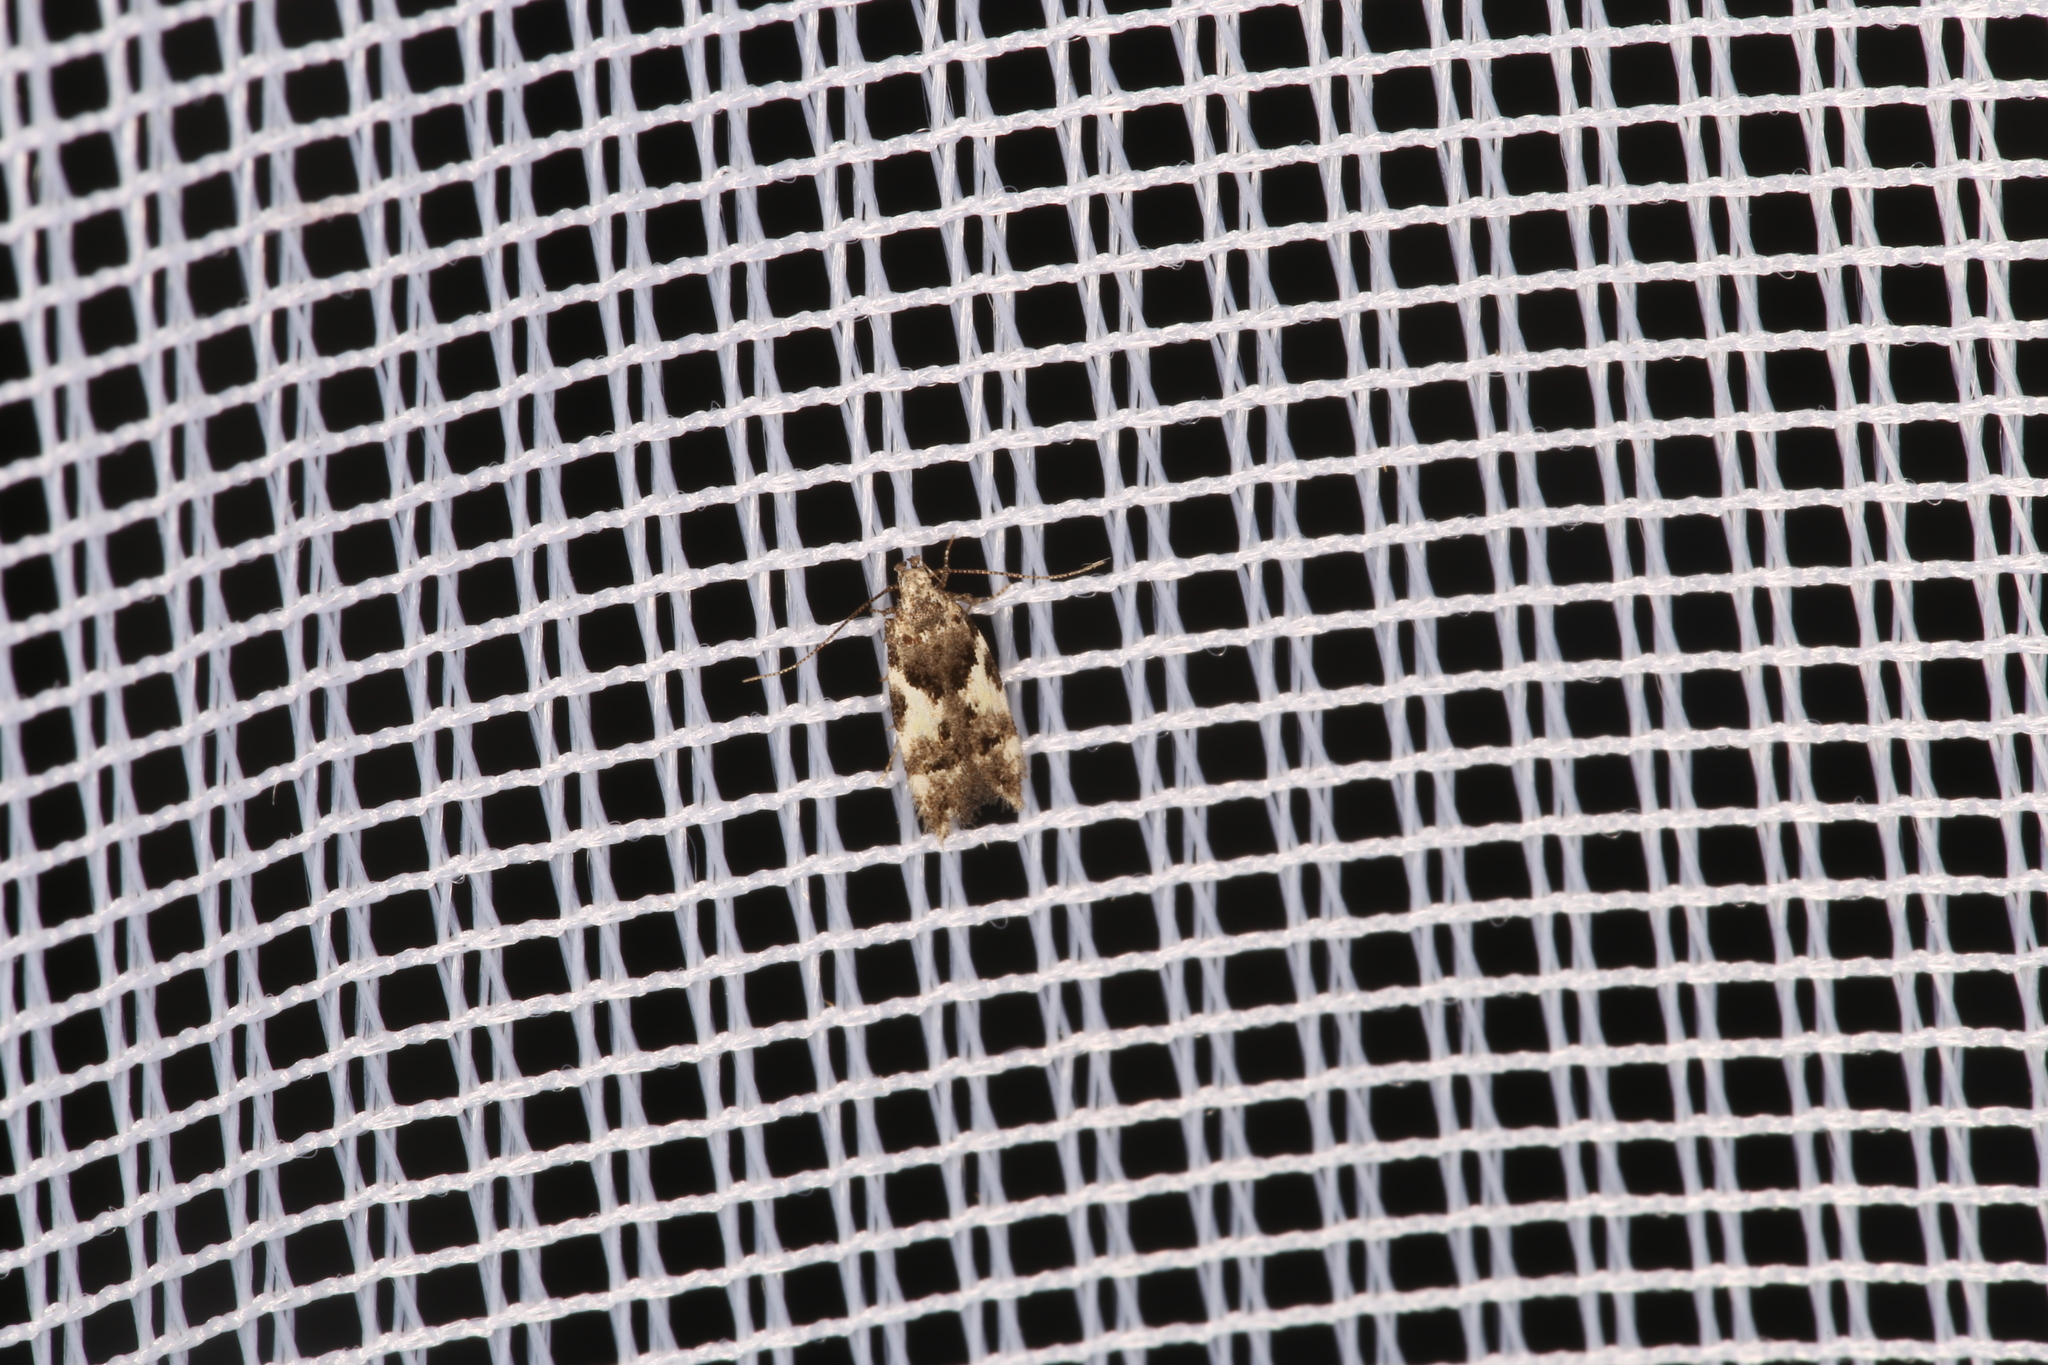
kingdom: Animalia
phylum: Arthropoda
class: Insecta
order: Lepidoptera
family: Gelechiidae
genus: Teleiodes
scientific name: Teleiodes luculella
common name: Crescent groundling
